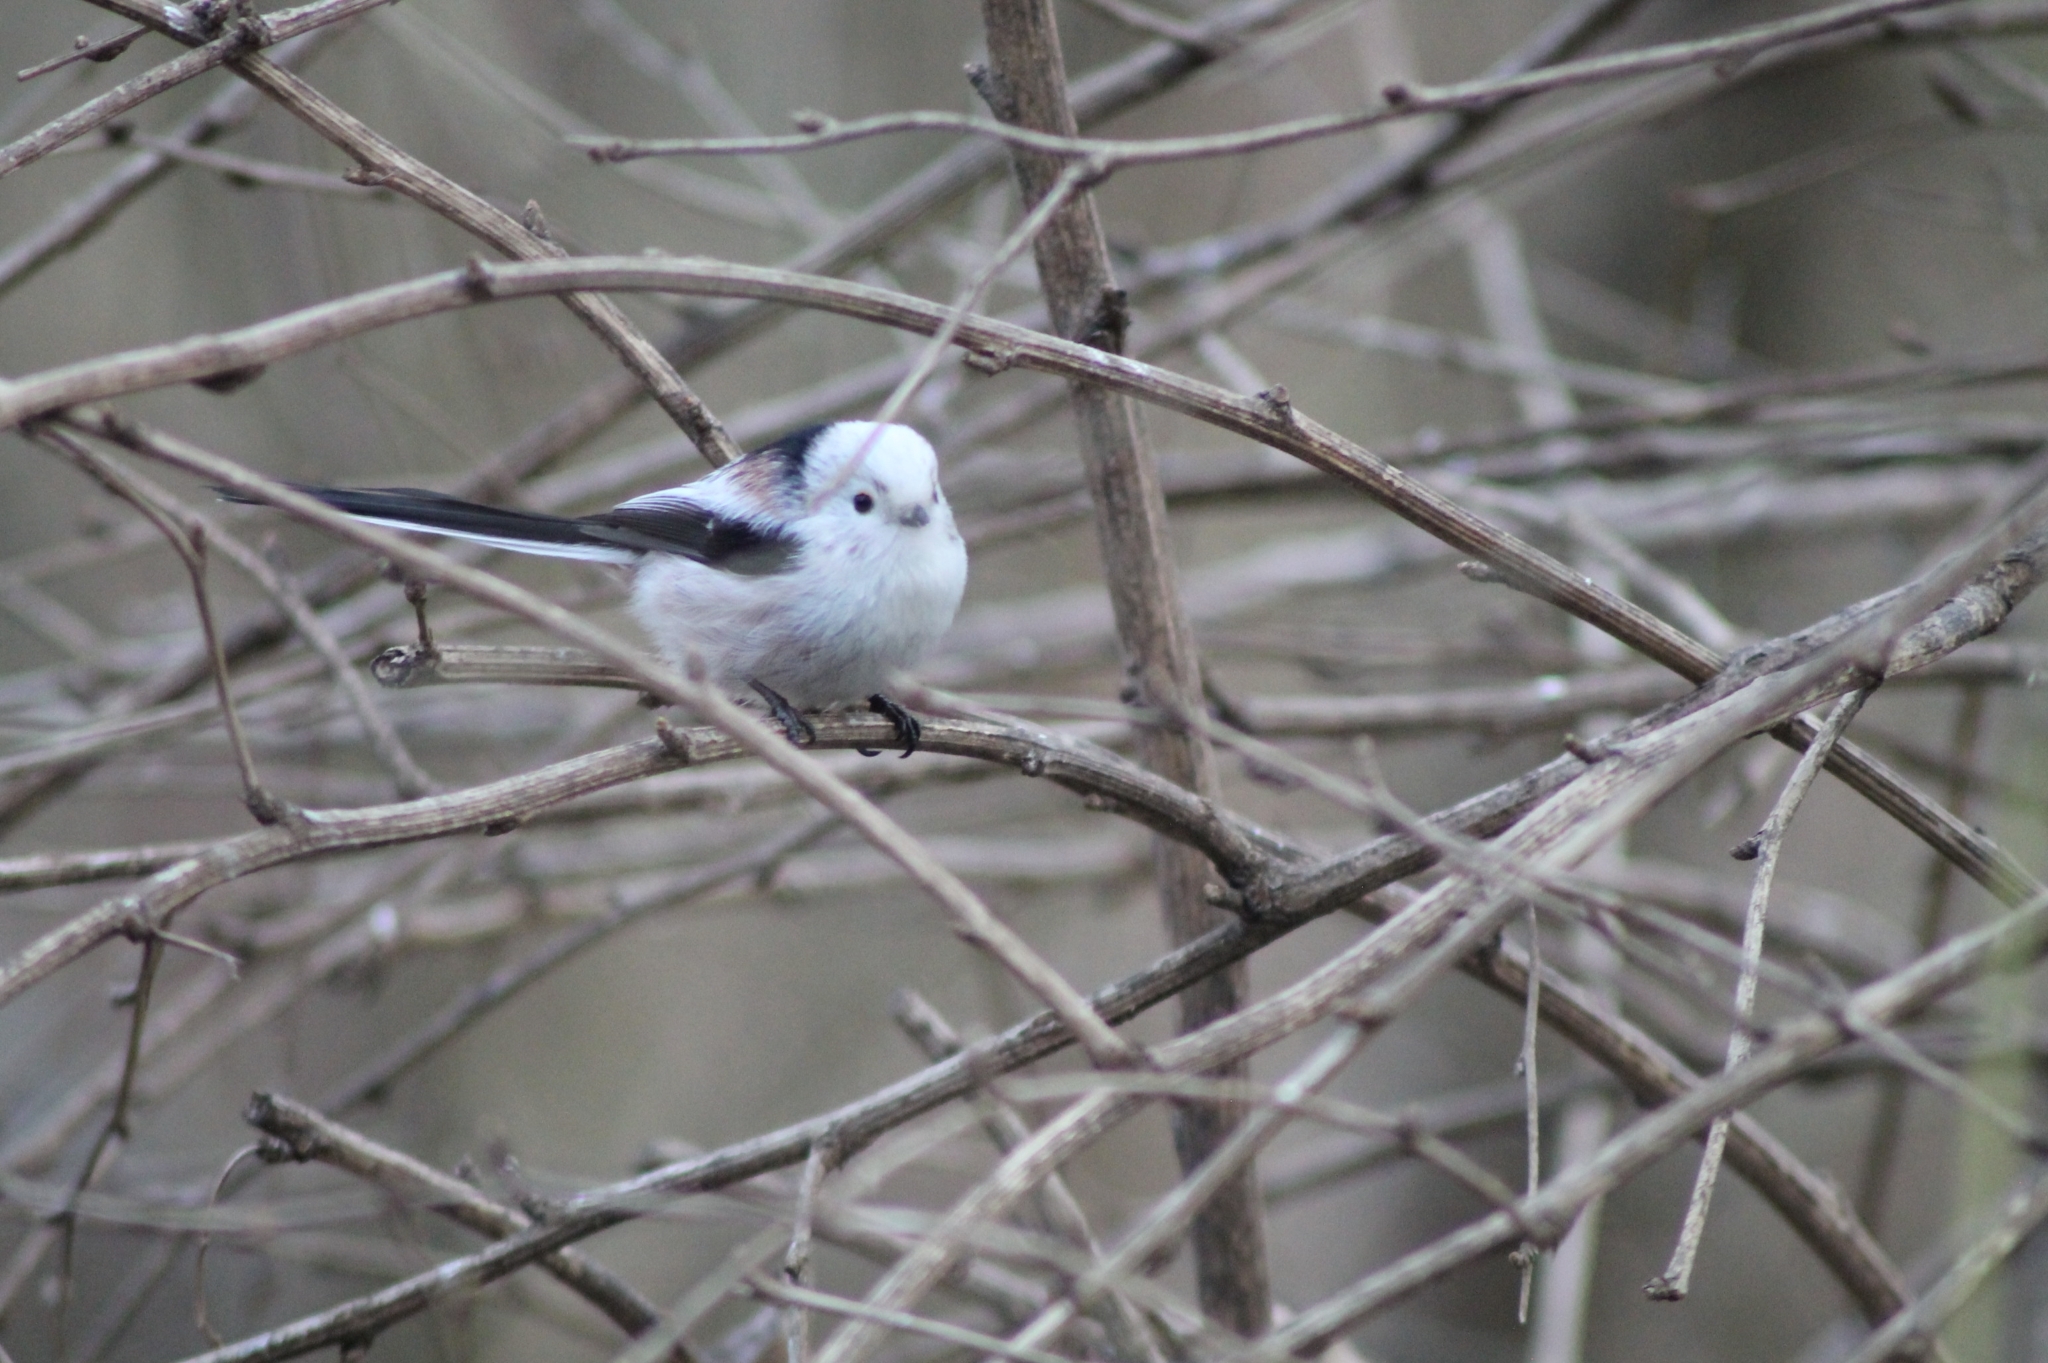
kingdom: Animalia
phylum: Chordata
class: Aves
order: Passeriformes
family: Aegithalidae
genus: Aegithalos
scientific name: Aegithalos caudatus
